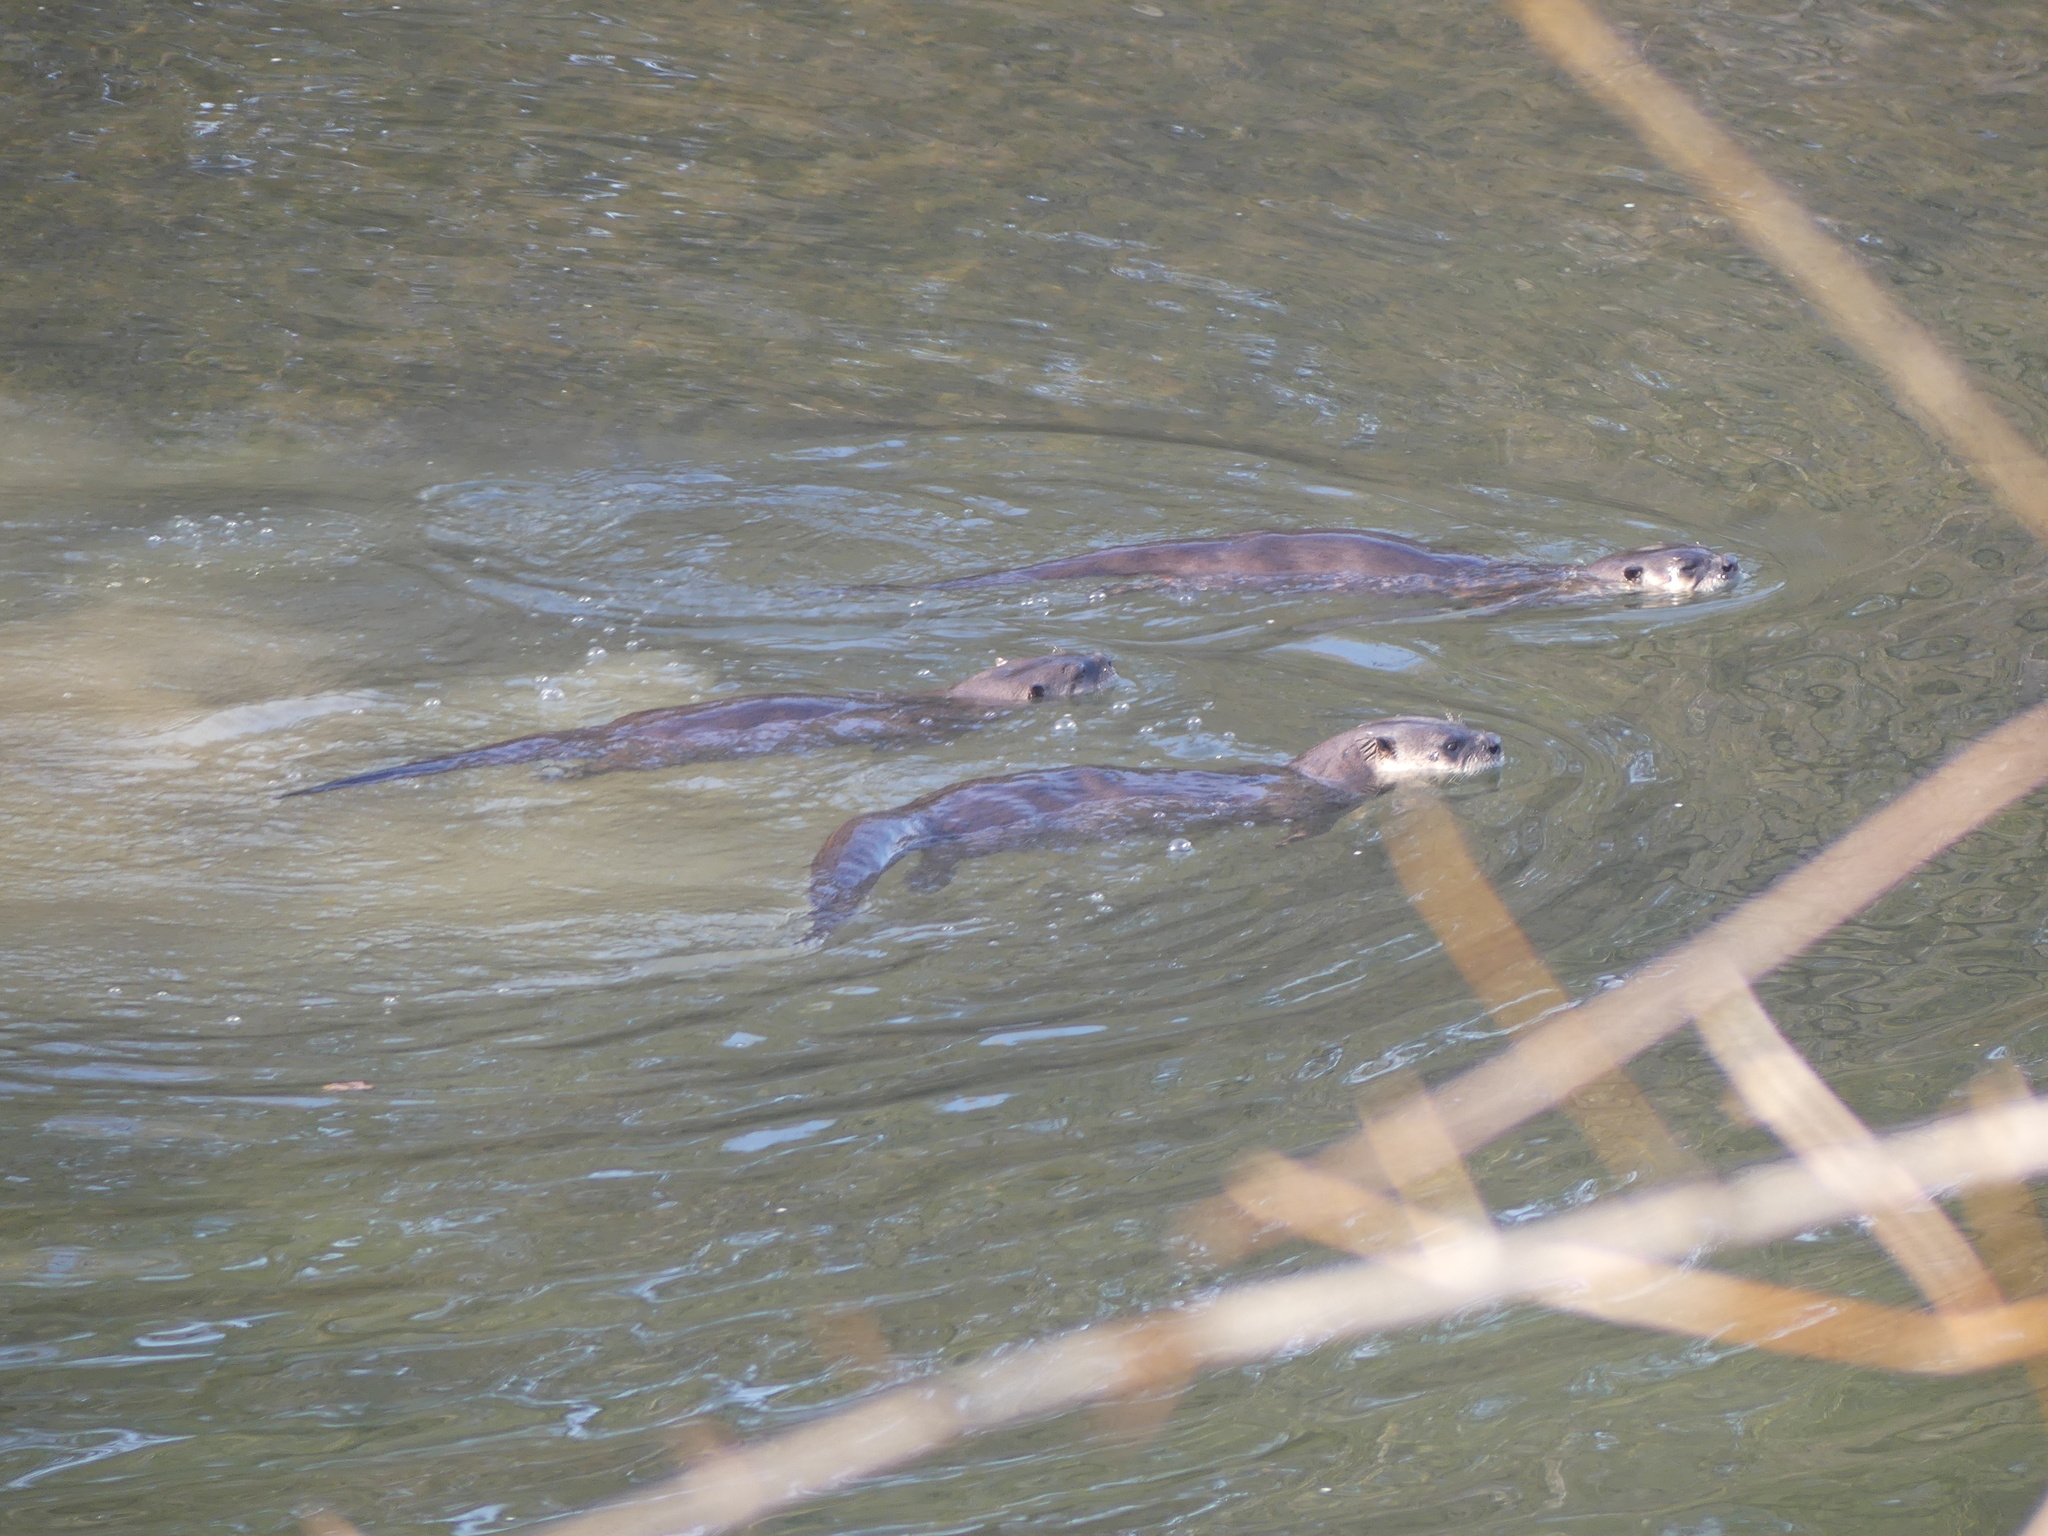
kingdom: Animalia
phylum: Chordata
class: Mammalia
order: Carnivora
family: Mustelidae
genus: Lontra
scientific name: Lontra canadensis
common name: North american river otter
